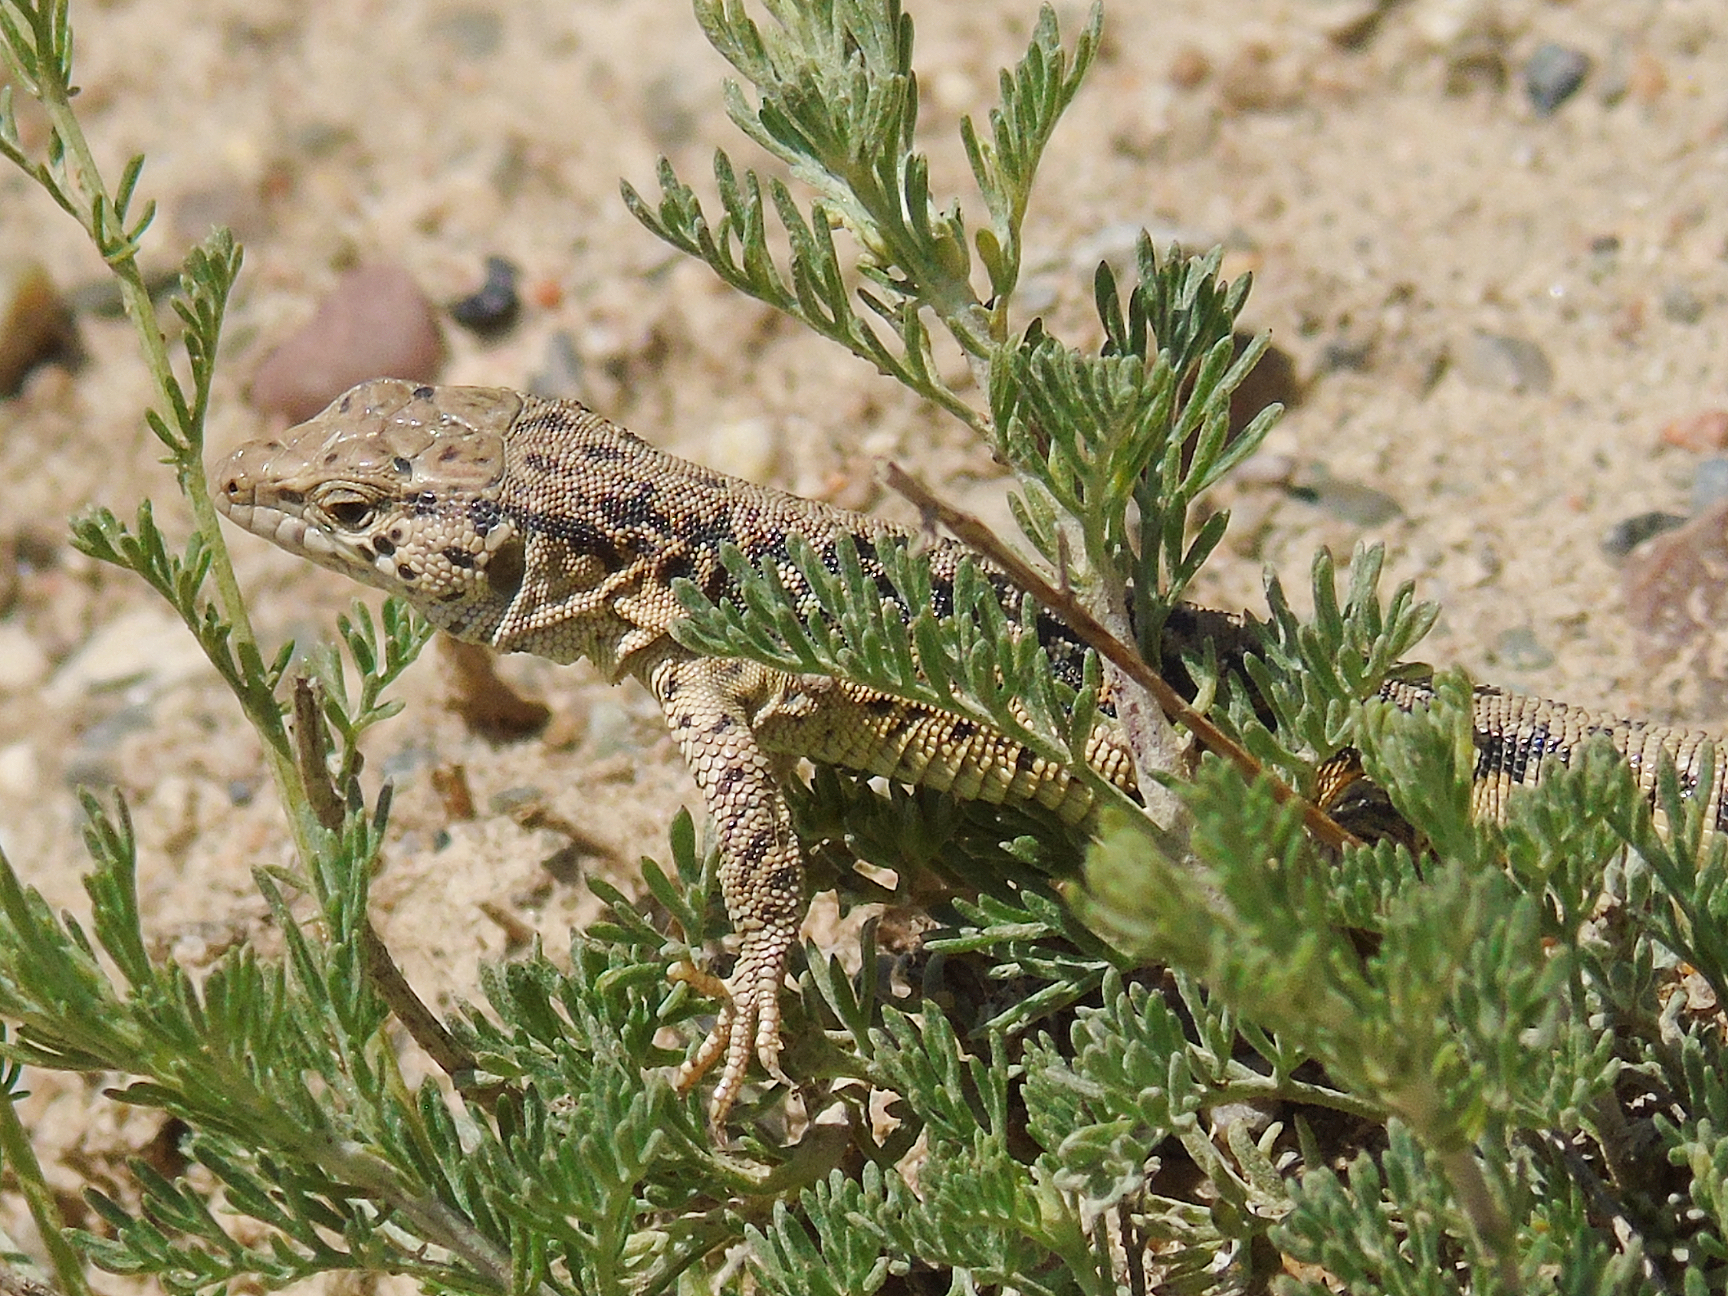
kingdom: Animalia
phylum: Chordata
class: Squamata
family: Lacertidae
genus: Eremias
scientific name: Eremias szczerbaki
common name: Szczerbak’s racerunner
